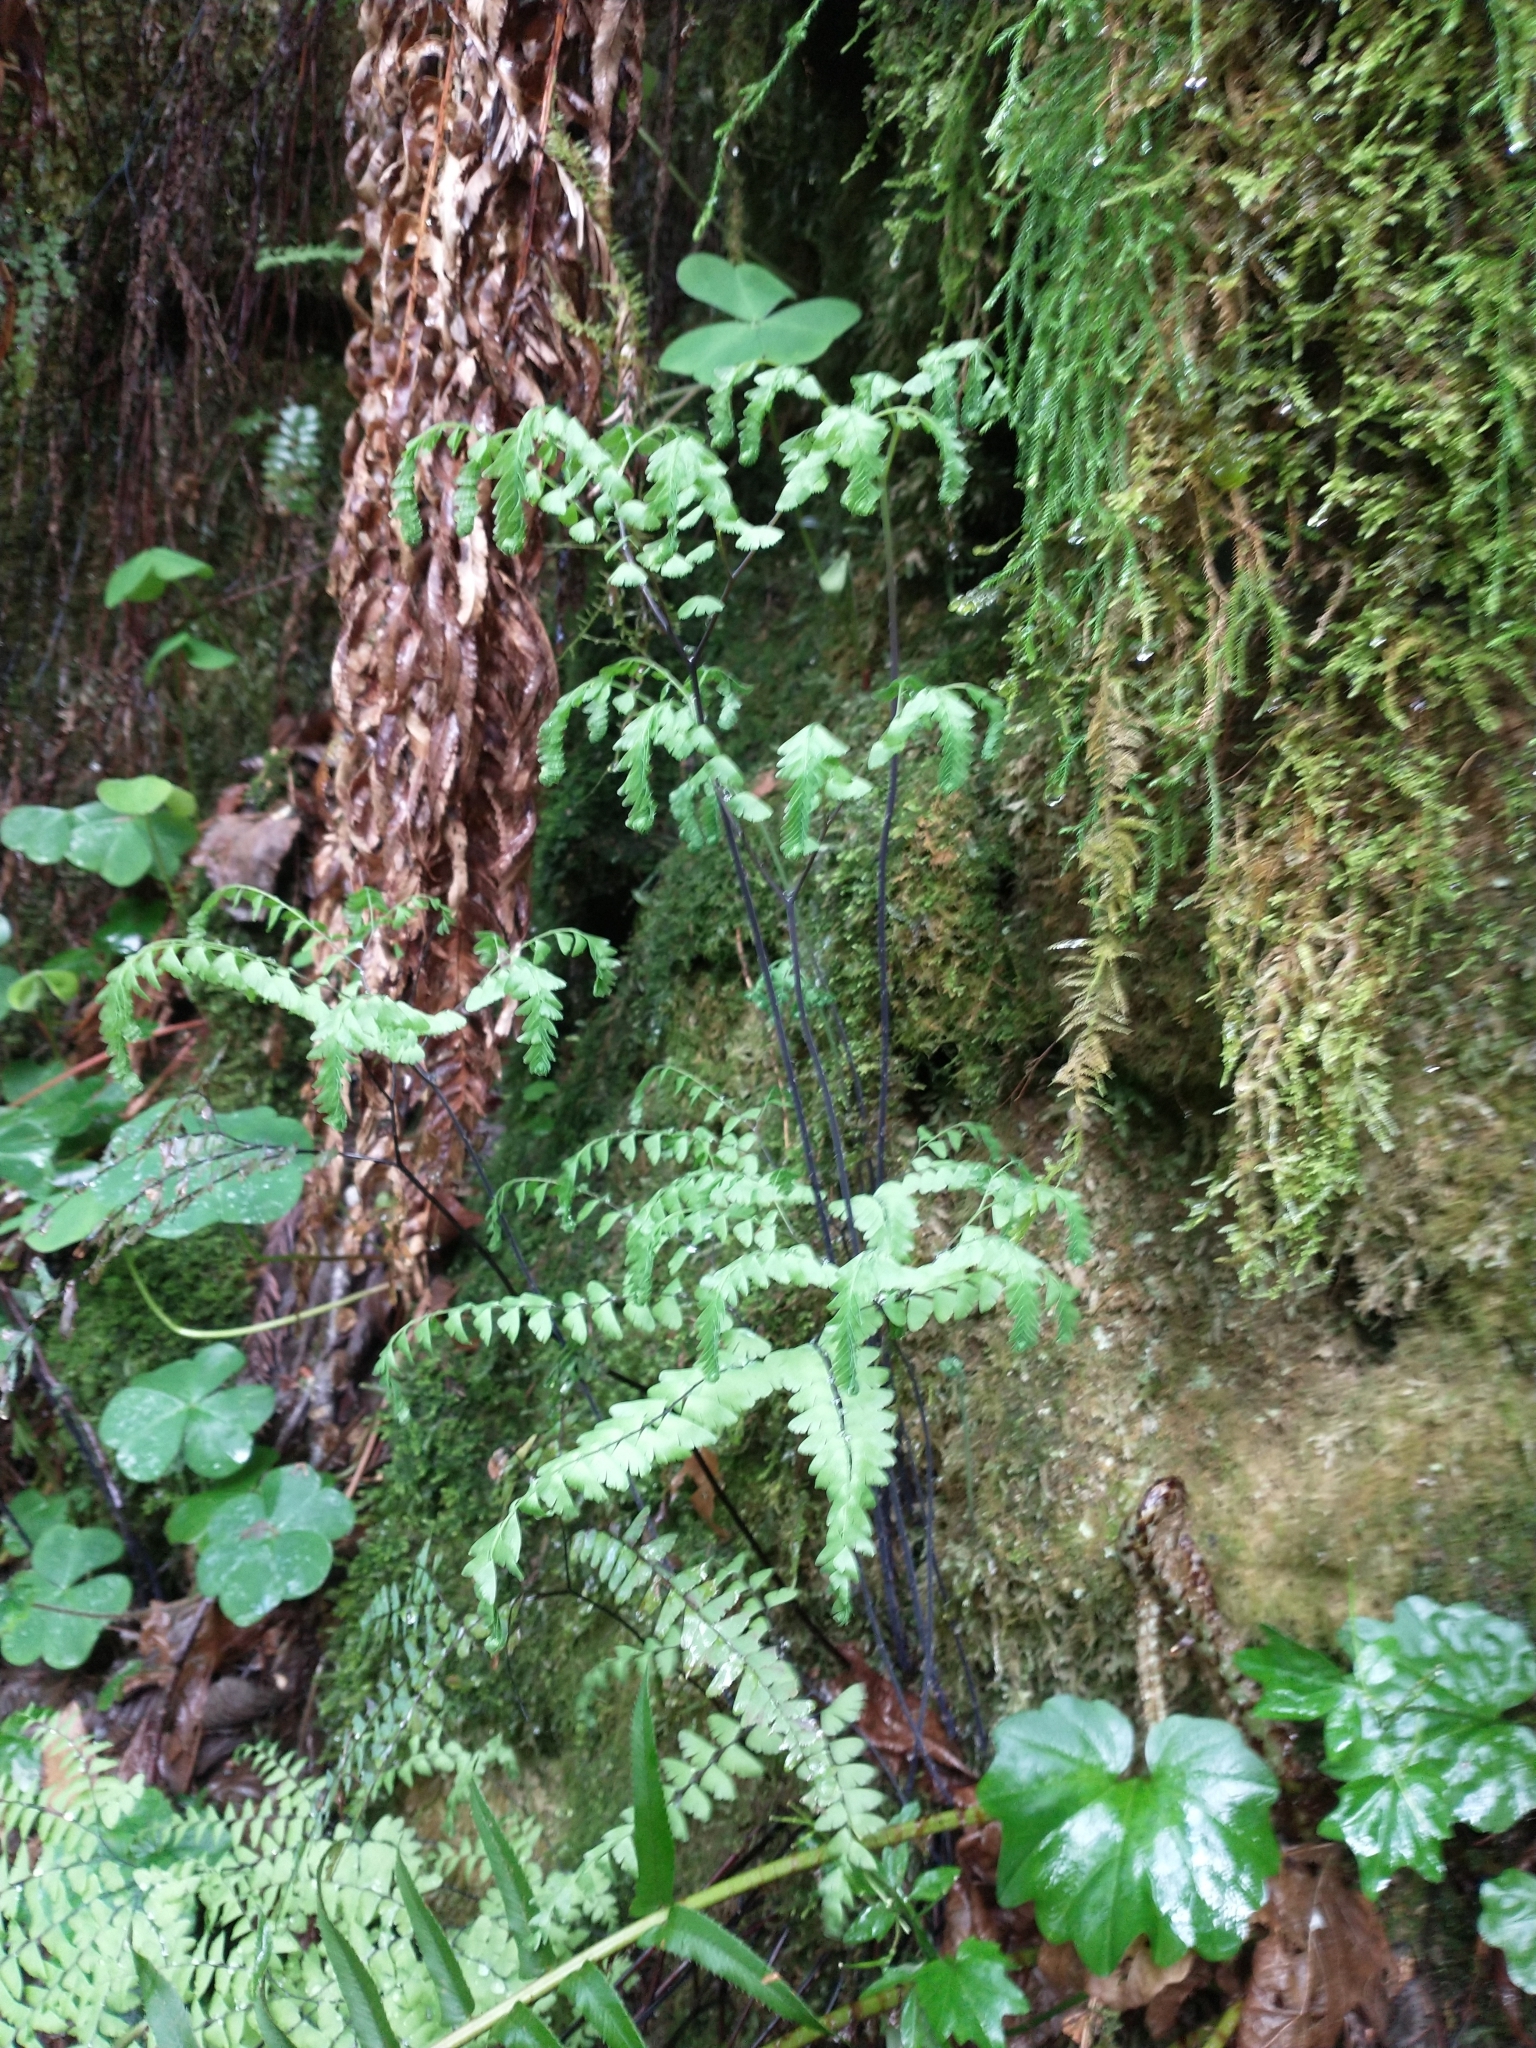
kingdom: Plantae
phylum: Tracheophyta
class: Polypodiopsida
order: Polypodiales
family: Pteridaceae
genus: Adiantum
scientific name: Adiantum aleuticum
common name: Aleutian maidenhair fern
